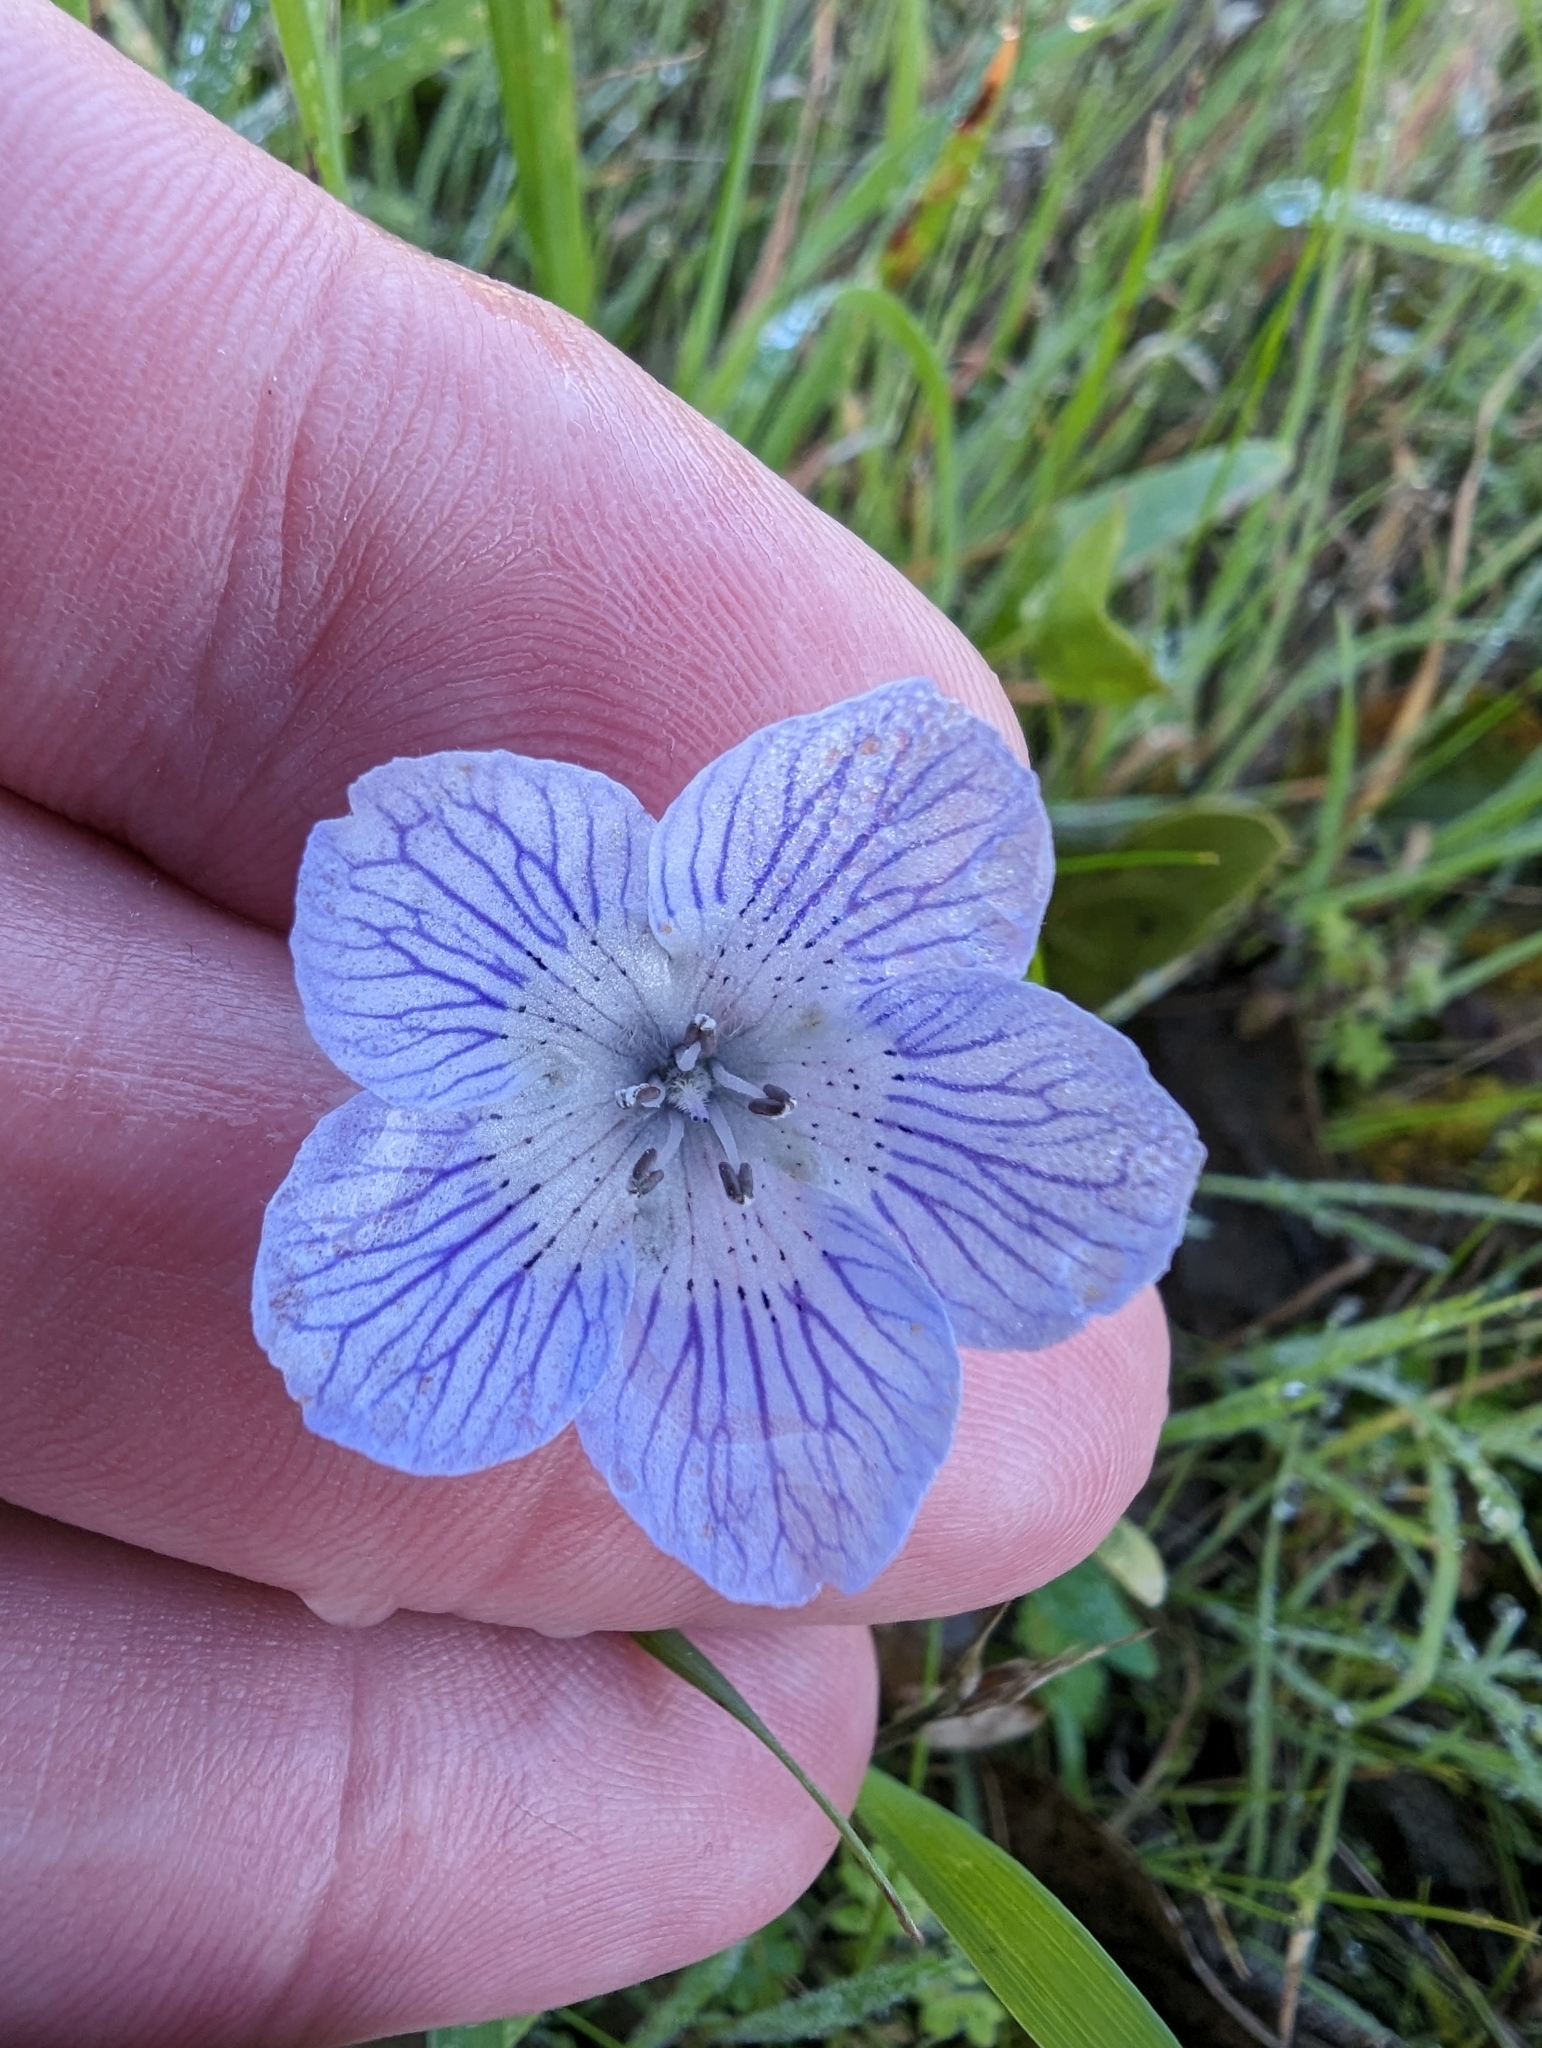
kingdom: Plantae
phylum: Tracheophyta
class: Magnoliopsida
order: Boraginales
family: Hydrophyllaceae
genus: Nemophila
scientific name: Nemophila menziesii
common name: Baby's-blue-eyes
